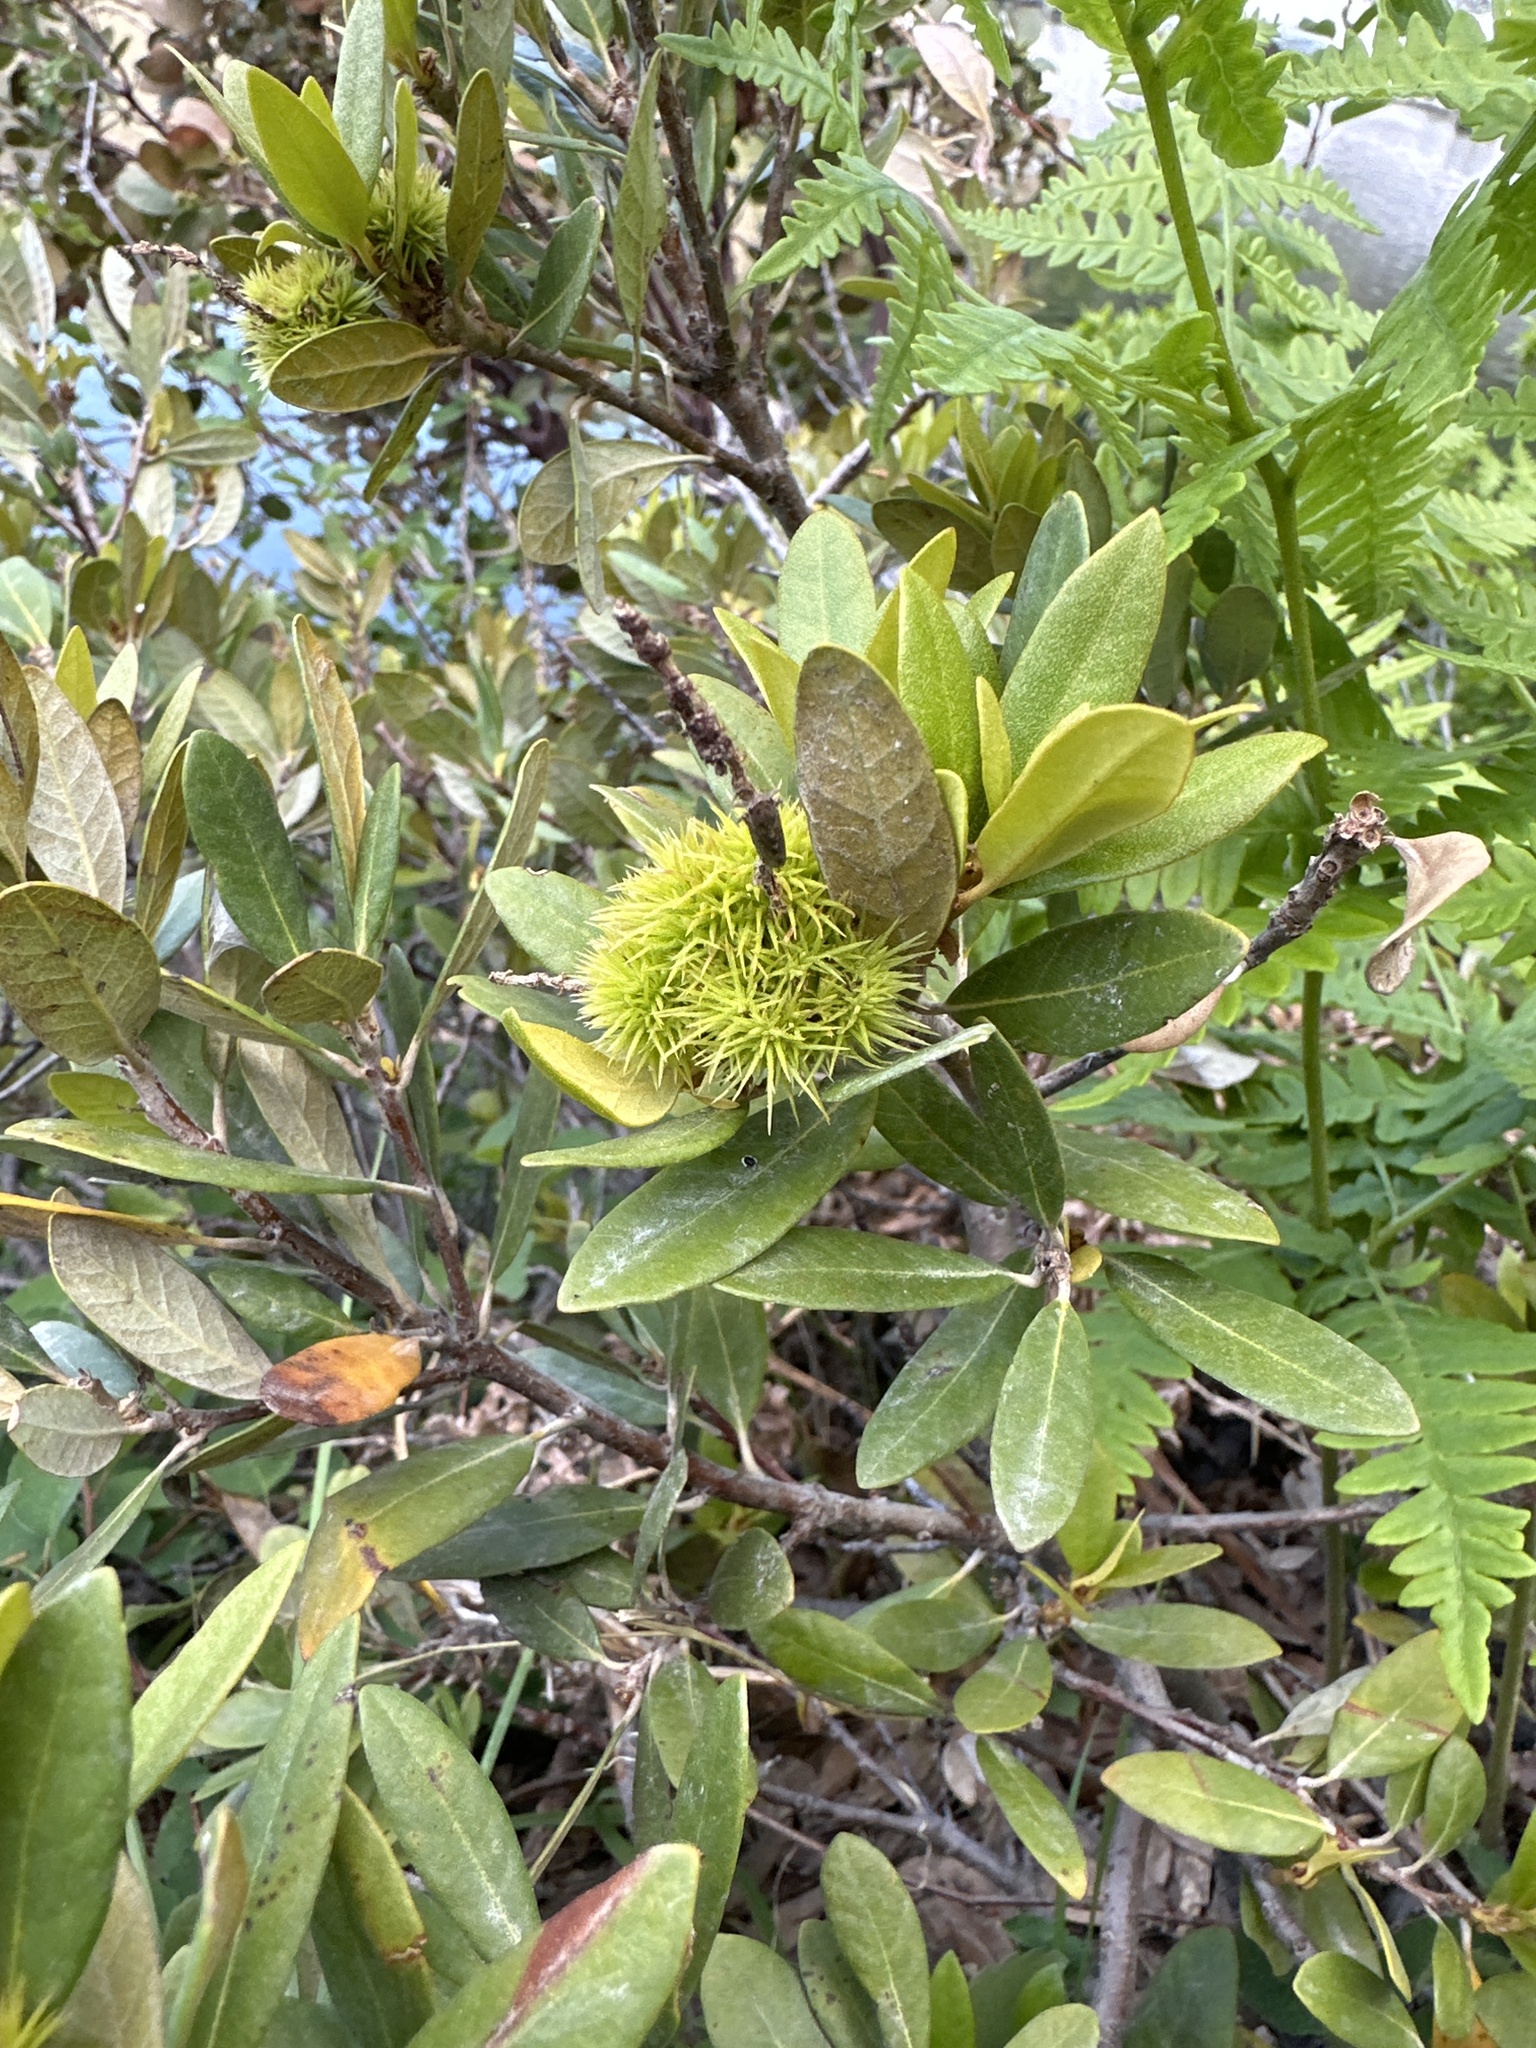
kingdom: Plantae
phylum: Tracheophyta
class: Magnoliopsida
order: Fagales
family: Fagaceae
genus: Chrysolepis
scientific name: Chrysolepis sempervirens
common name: Bush chinquapin
